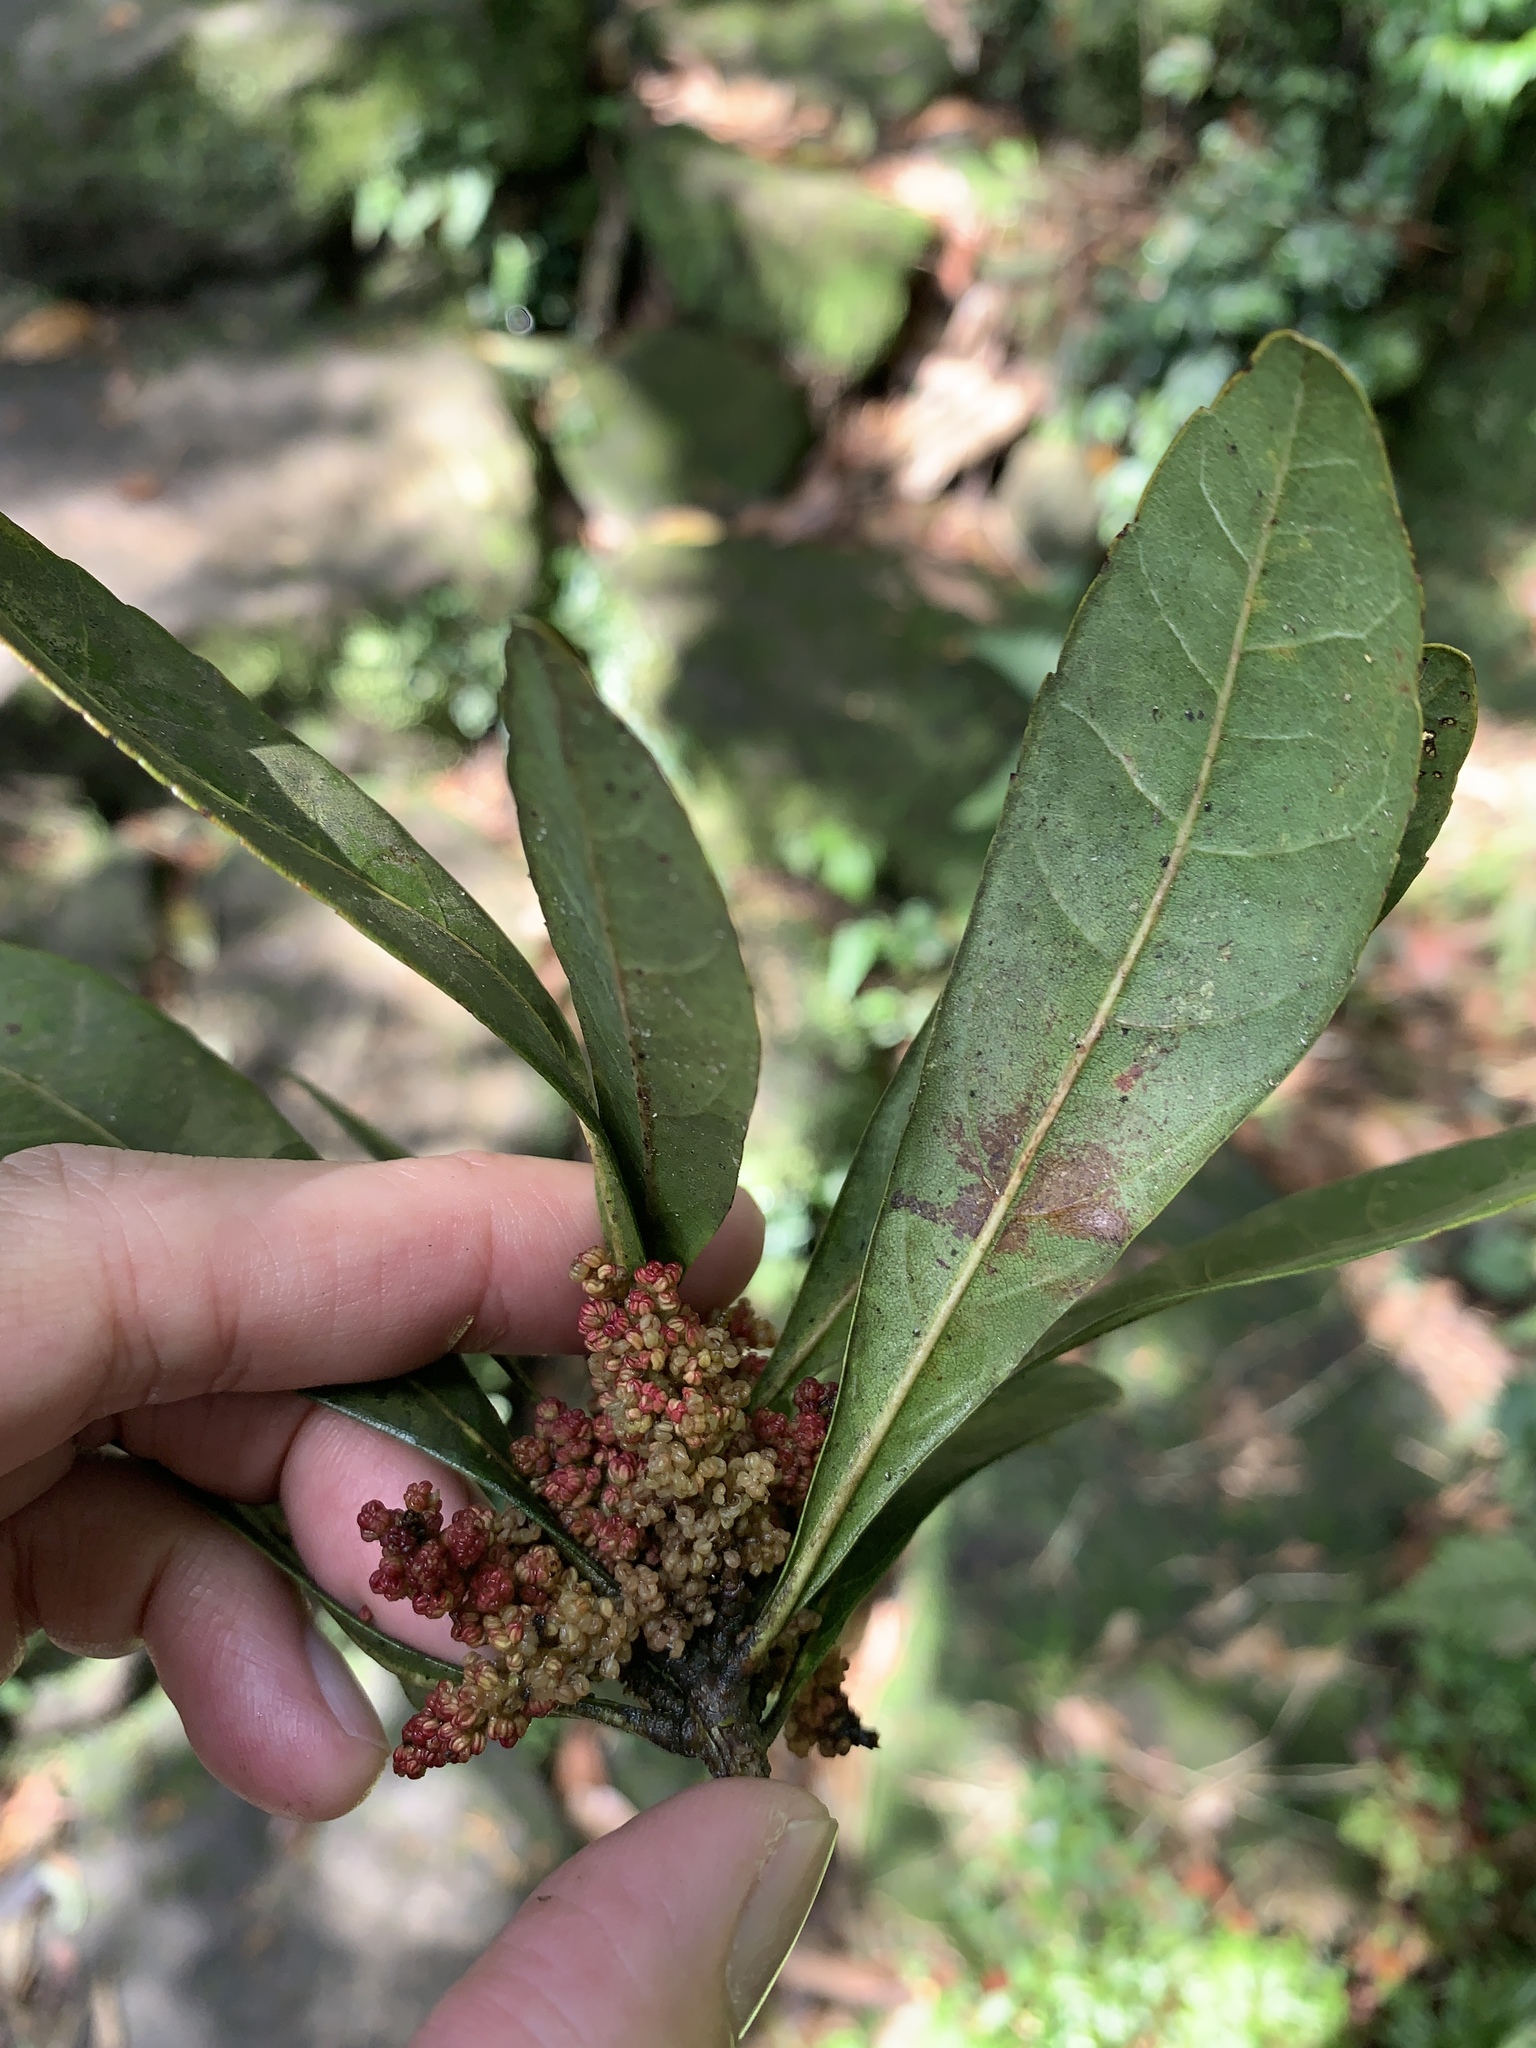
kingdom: Plantae
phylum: Tracheophyta
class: Magnoliopsida
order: Fagales
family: Myricaceae
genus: Morella
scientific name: Morella rubra
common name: Red bayberry
